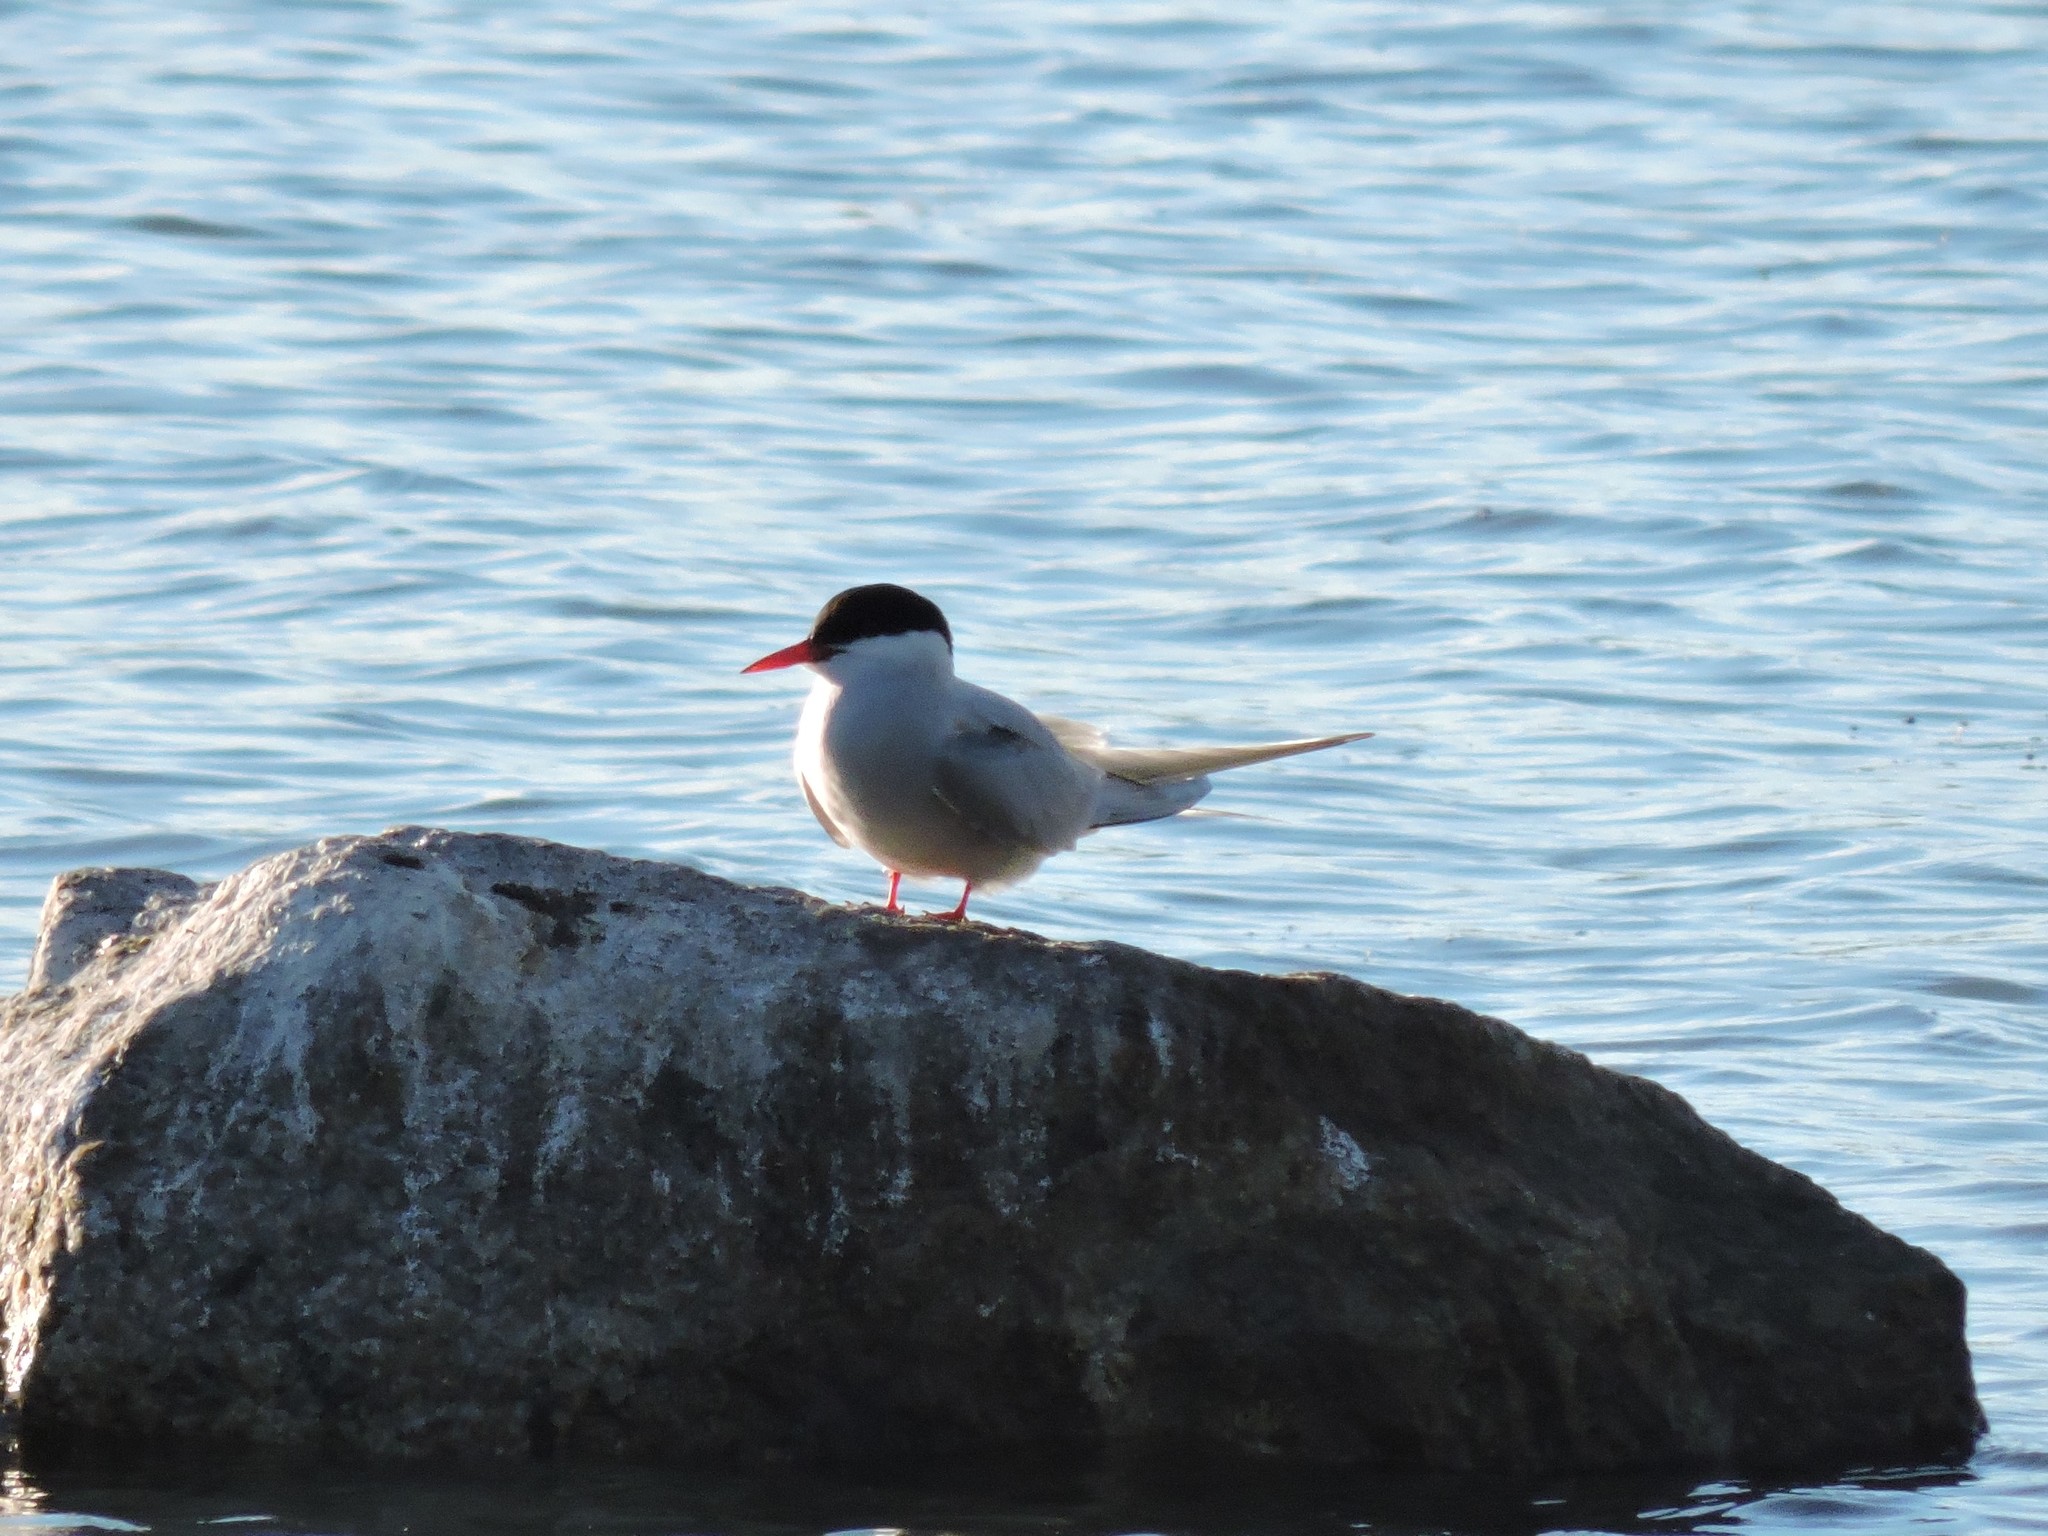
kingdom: Animalia
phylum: Chordata
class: Aves
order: Charadriiformes
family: Laridae
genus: Sterna
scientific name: Sterna paradisaea
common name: Arctic tern
